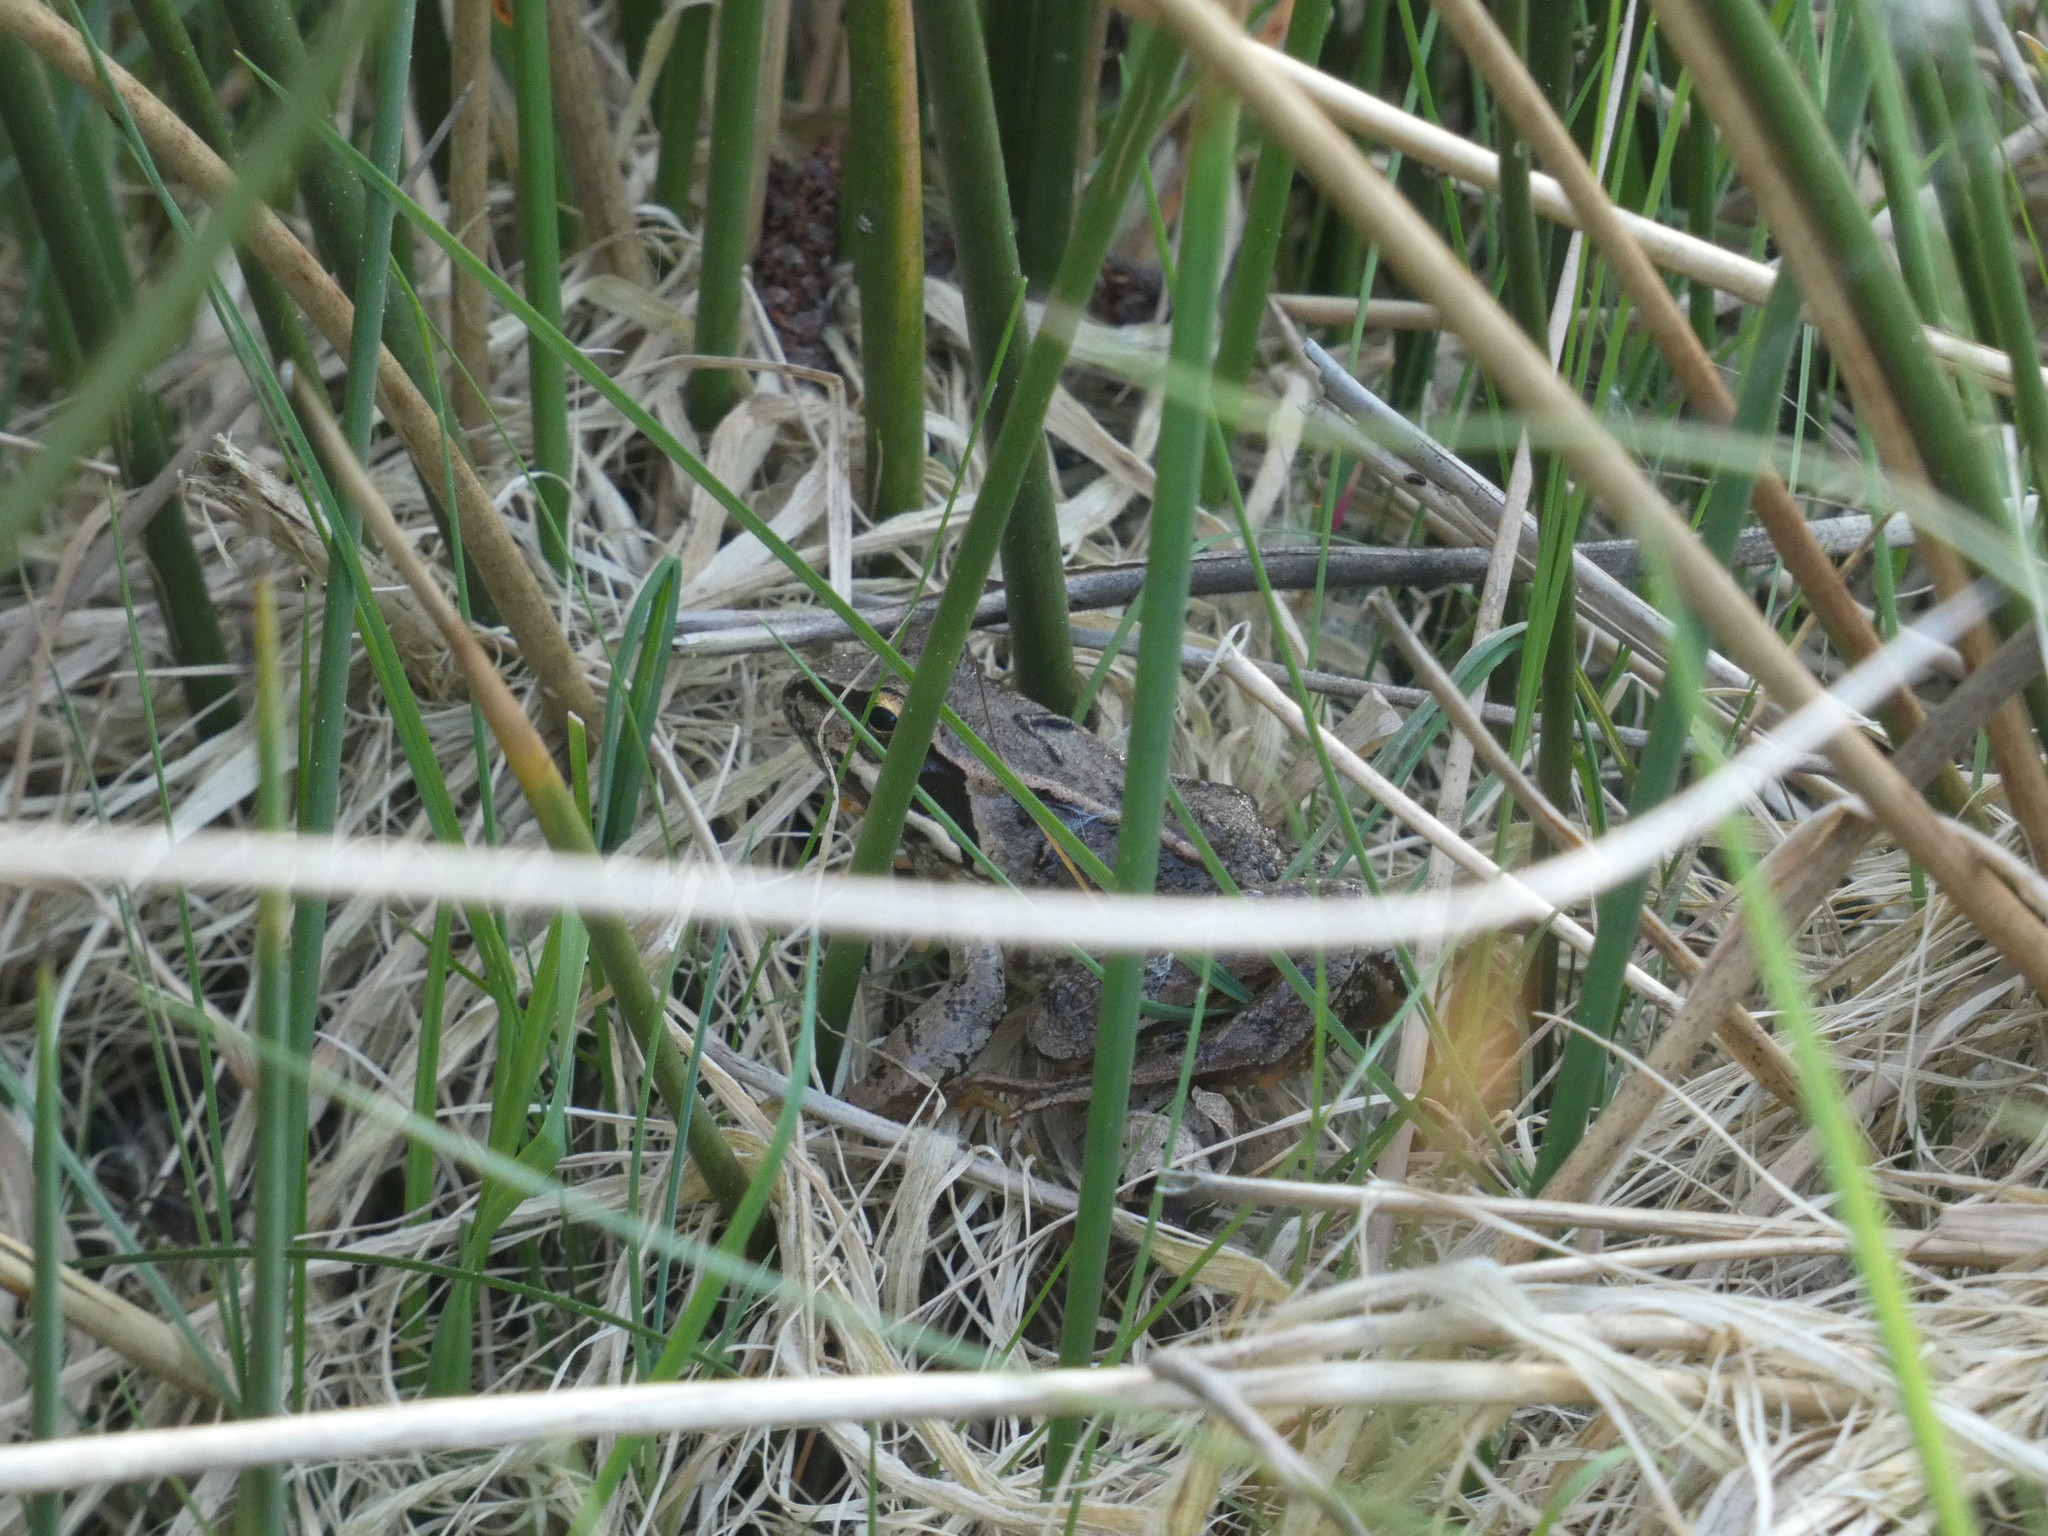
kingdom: Animalia
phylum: Chordata
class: Amphibia
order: Anura
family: Ranidae
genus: Rana
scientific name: Rana temporaria
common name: Common frog
